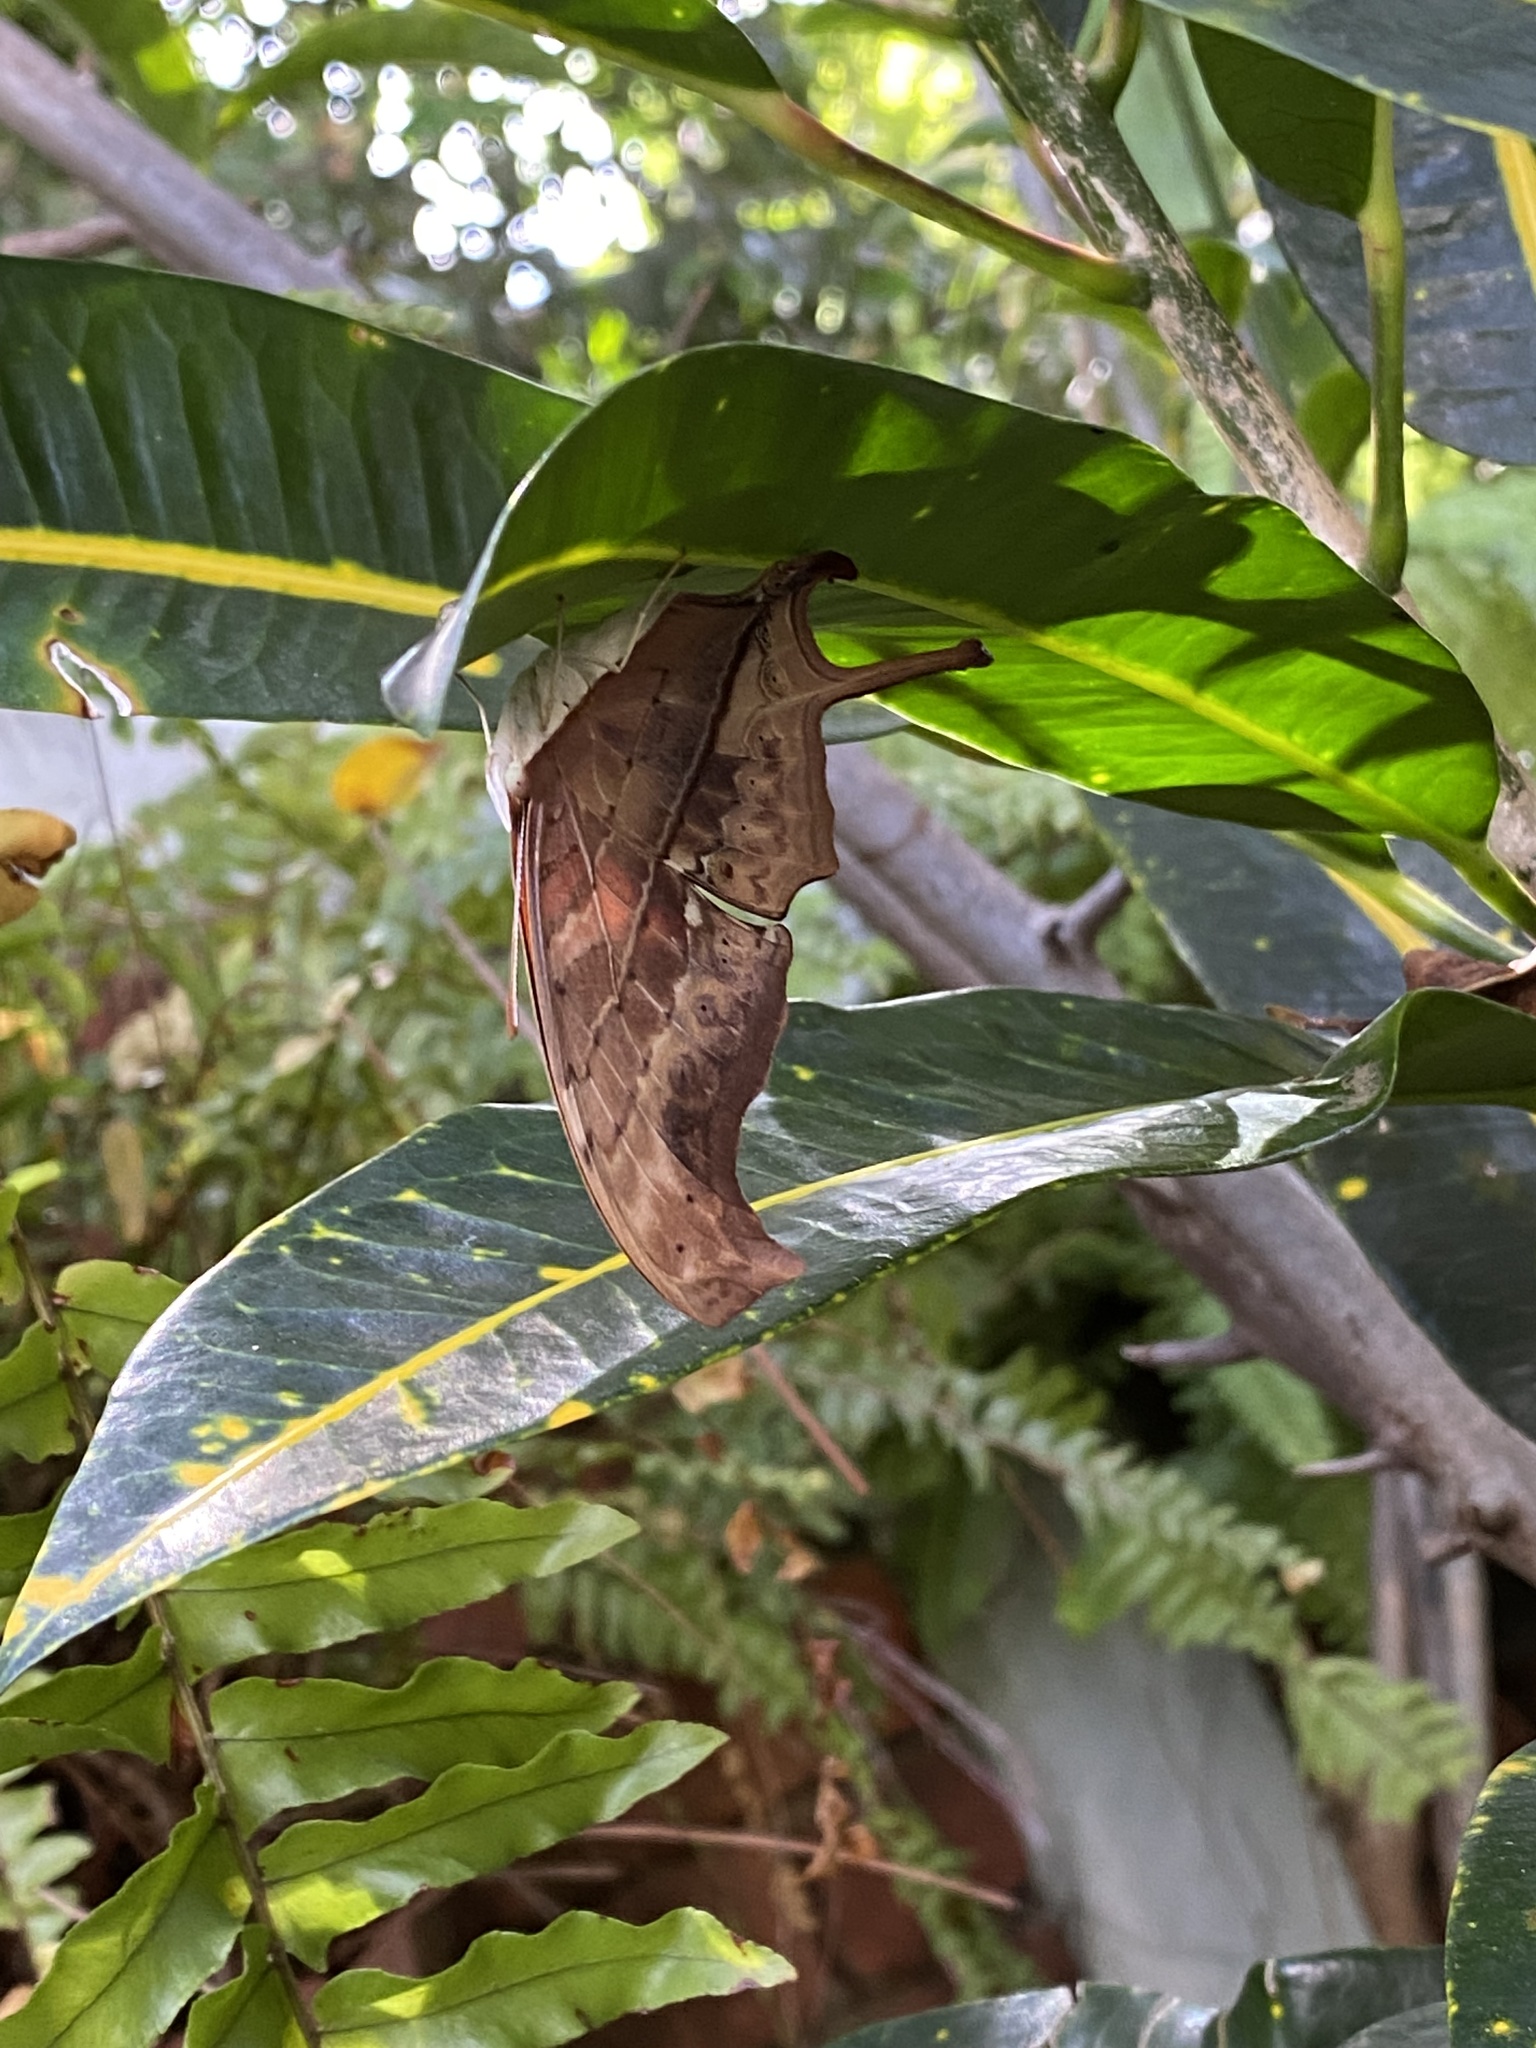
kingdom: Animalia
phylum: Arthropoda
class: Insecta
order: Lepidoptera
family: Nymphalidae
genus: Marpesia
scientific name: Marpesia petreus
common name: Red dagger wing
